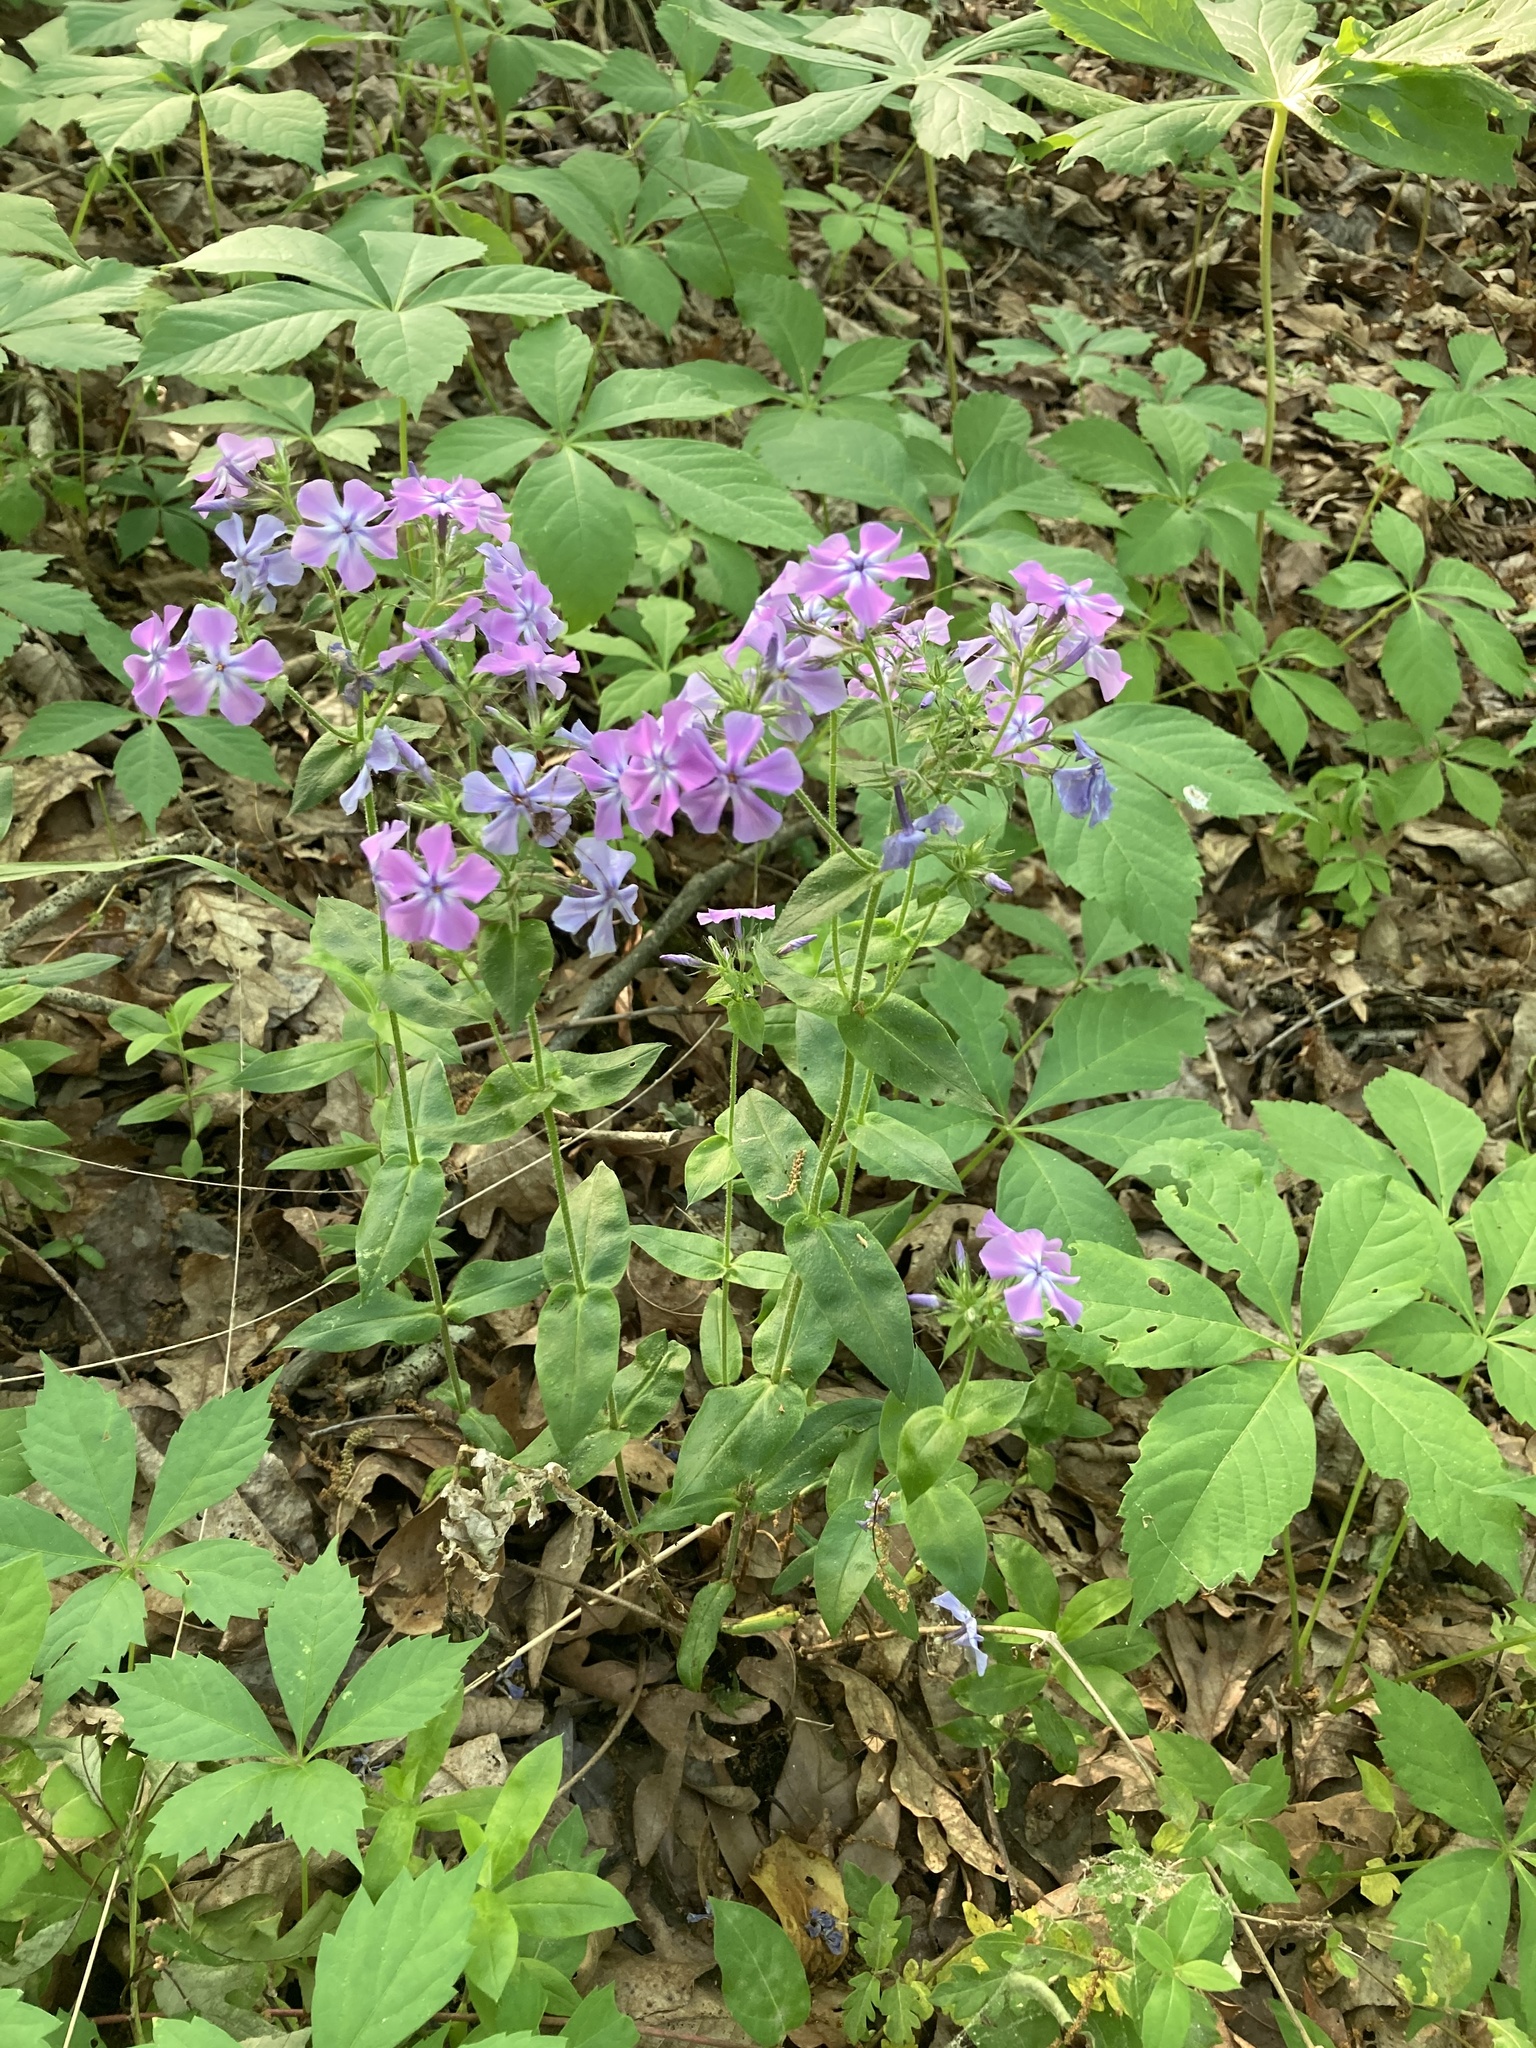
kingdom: Plantae
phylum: Tracheophyta
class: Magnoliopsida
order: Ericales
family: Polemoniaceae
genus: Phlox
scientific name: Phlox pilosa
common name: Prairie phlox
